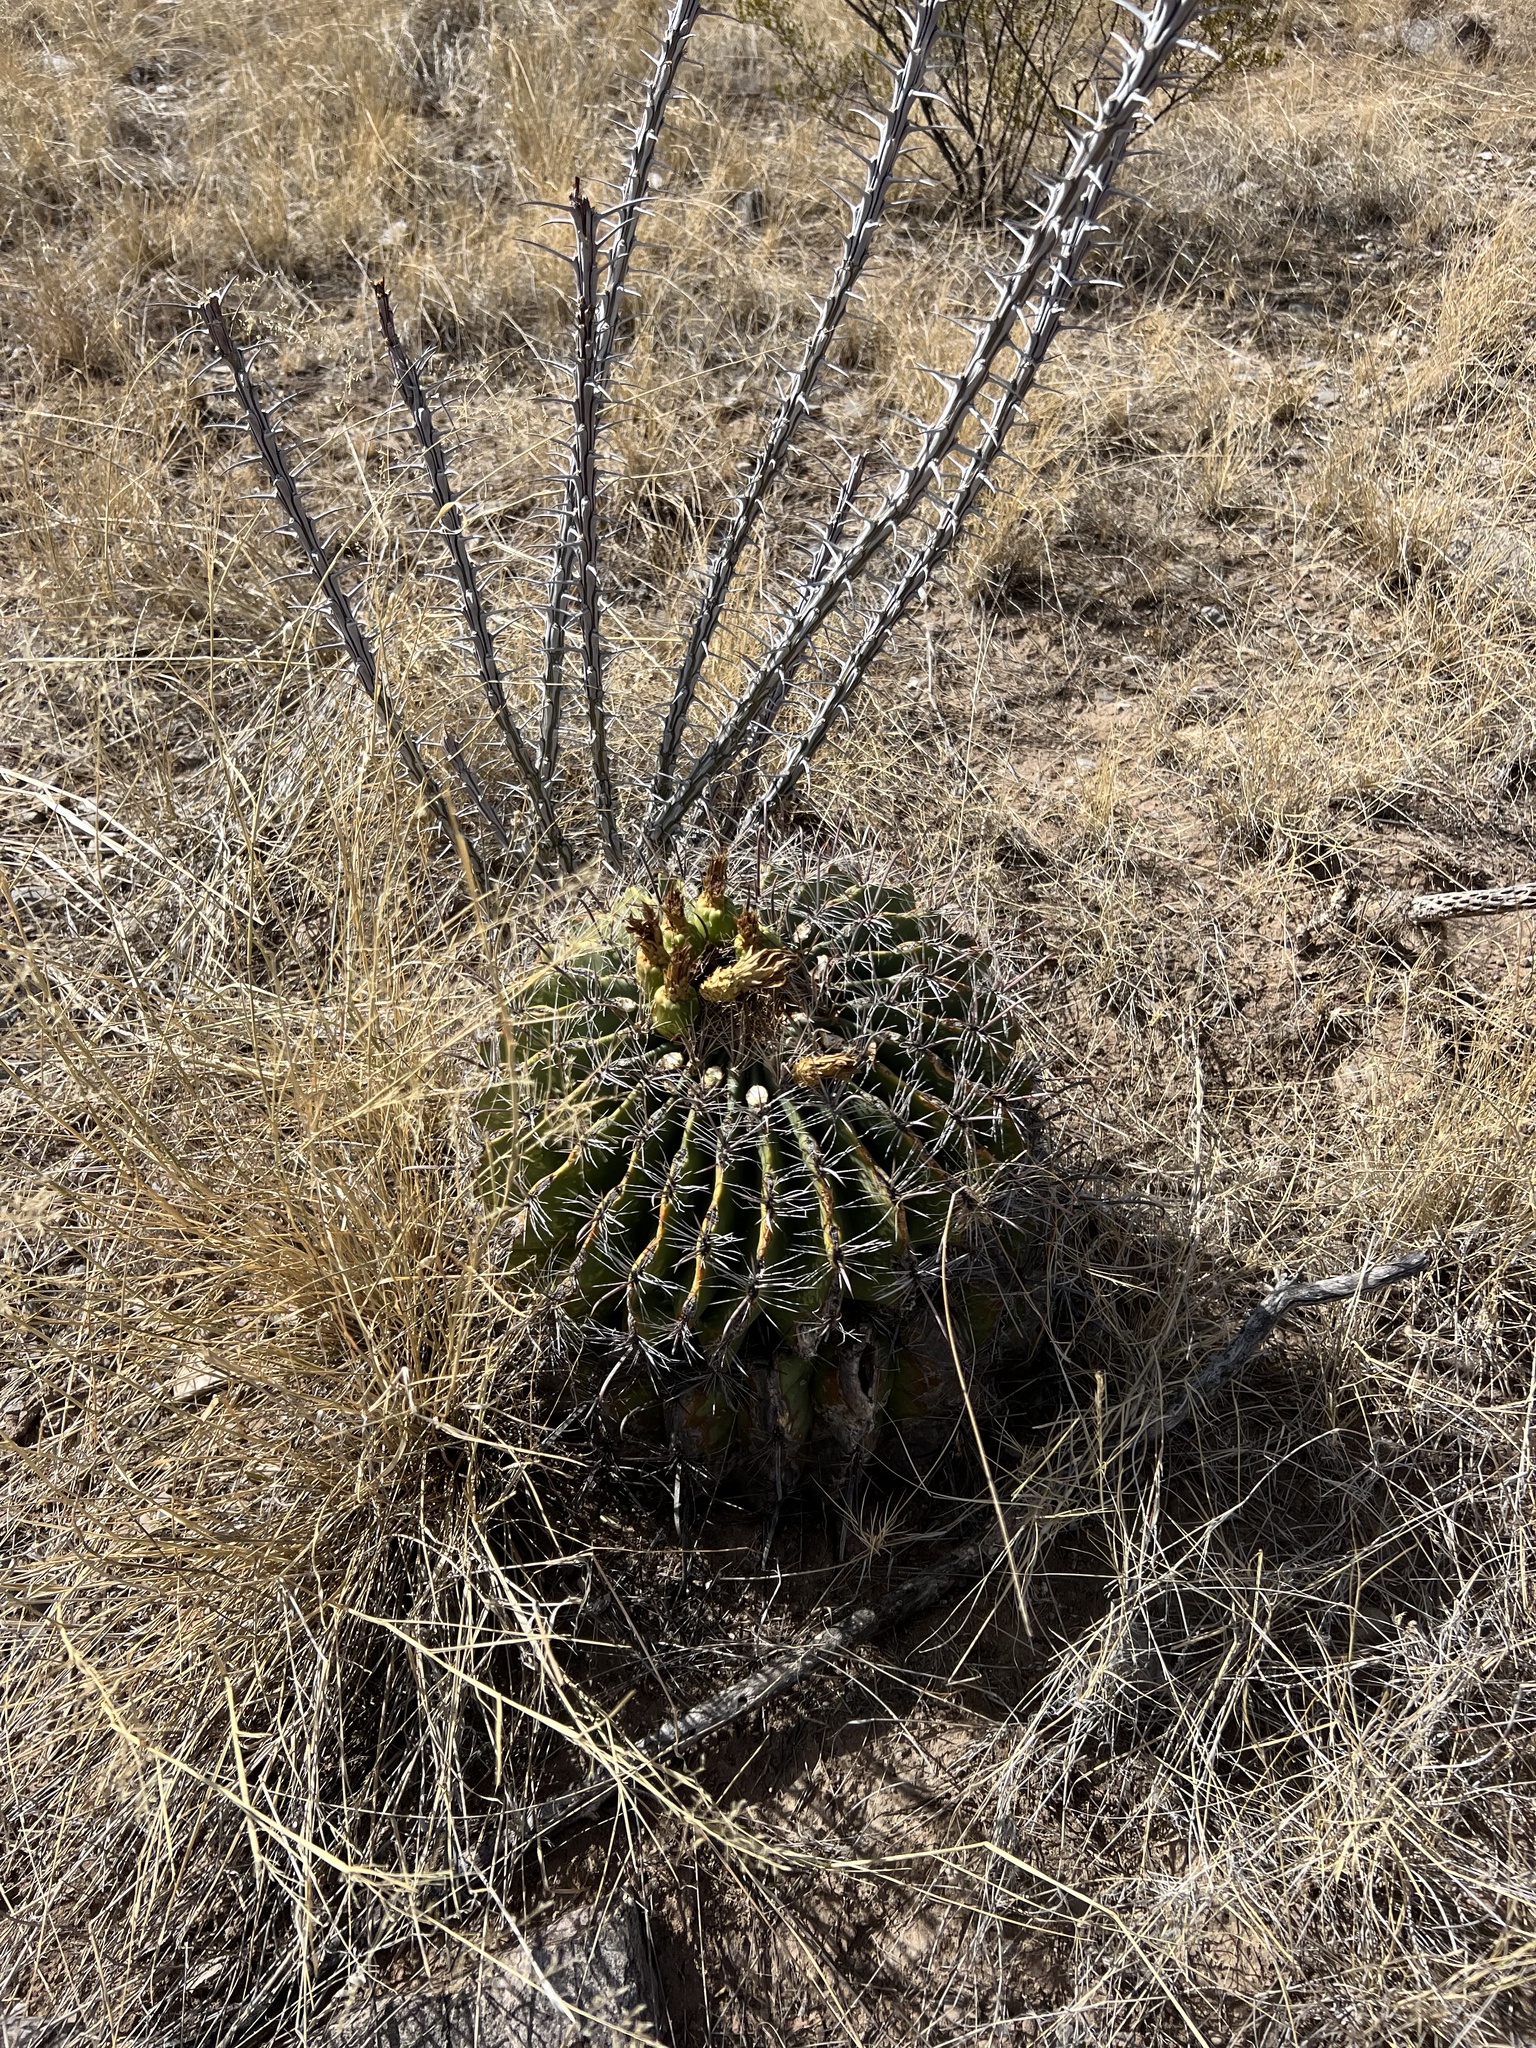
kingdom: Plantae
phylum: Tracheophyta
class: Magnoliopsida
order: Caryophyllales
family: Cactaceae
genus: Ferocactus
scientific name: Ferocactus wislizeni
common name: Candy barrel cactus
